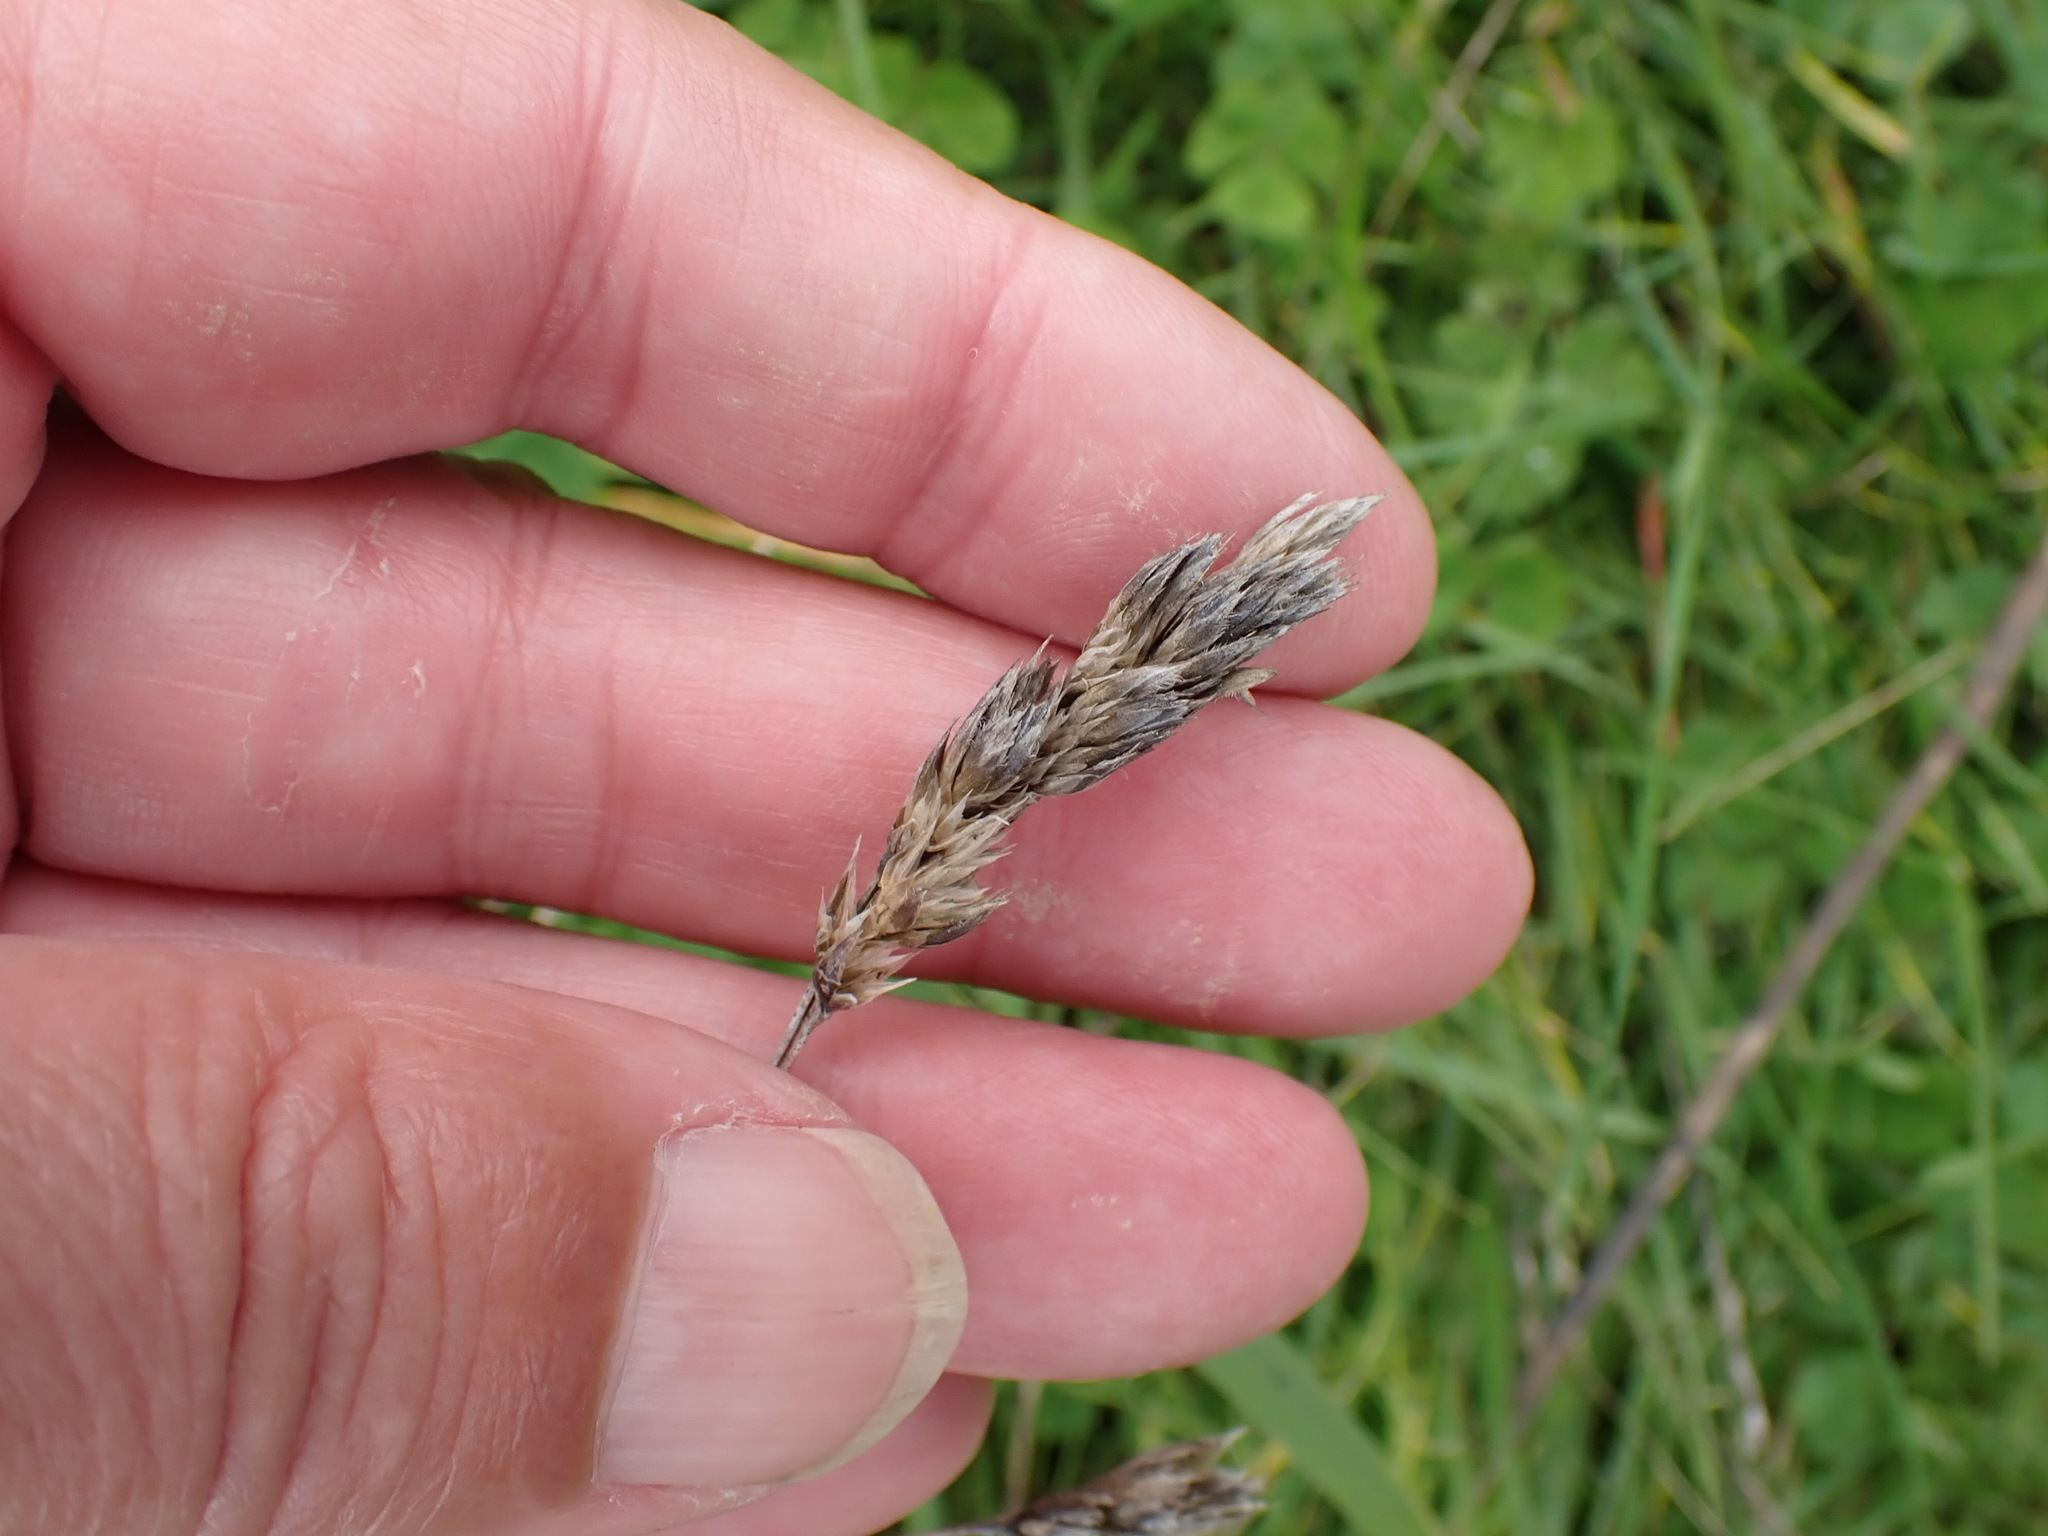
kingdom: Plantae
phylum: Tracheophyta
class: Liliopsida
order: Poales
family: Poaceae
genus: Dactylis
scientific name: Dactylis glomerata
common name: Orchardgrass
